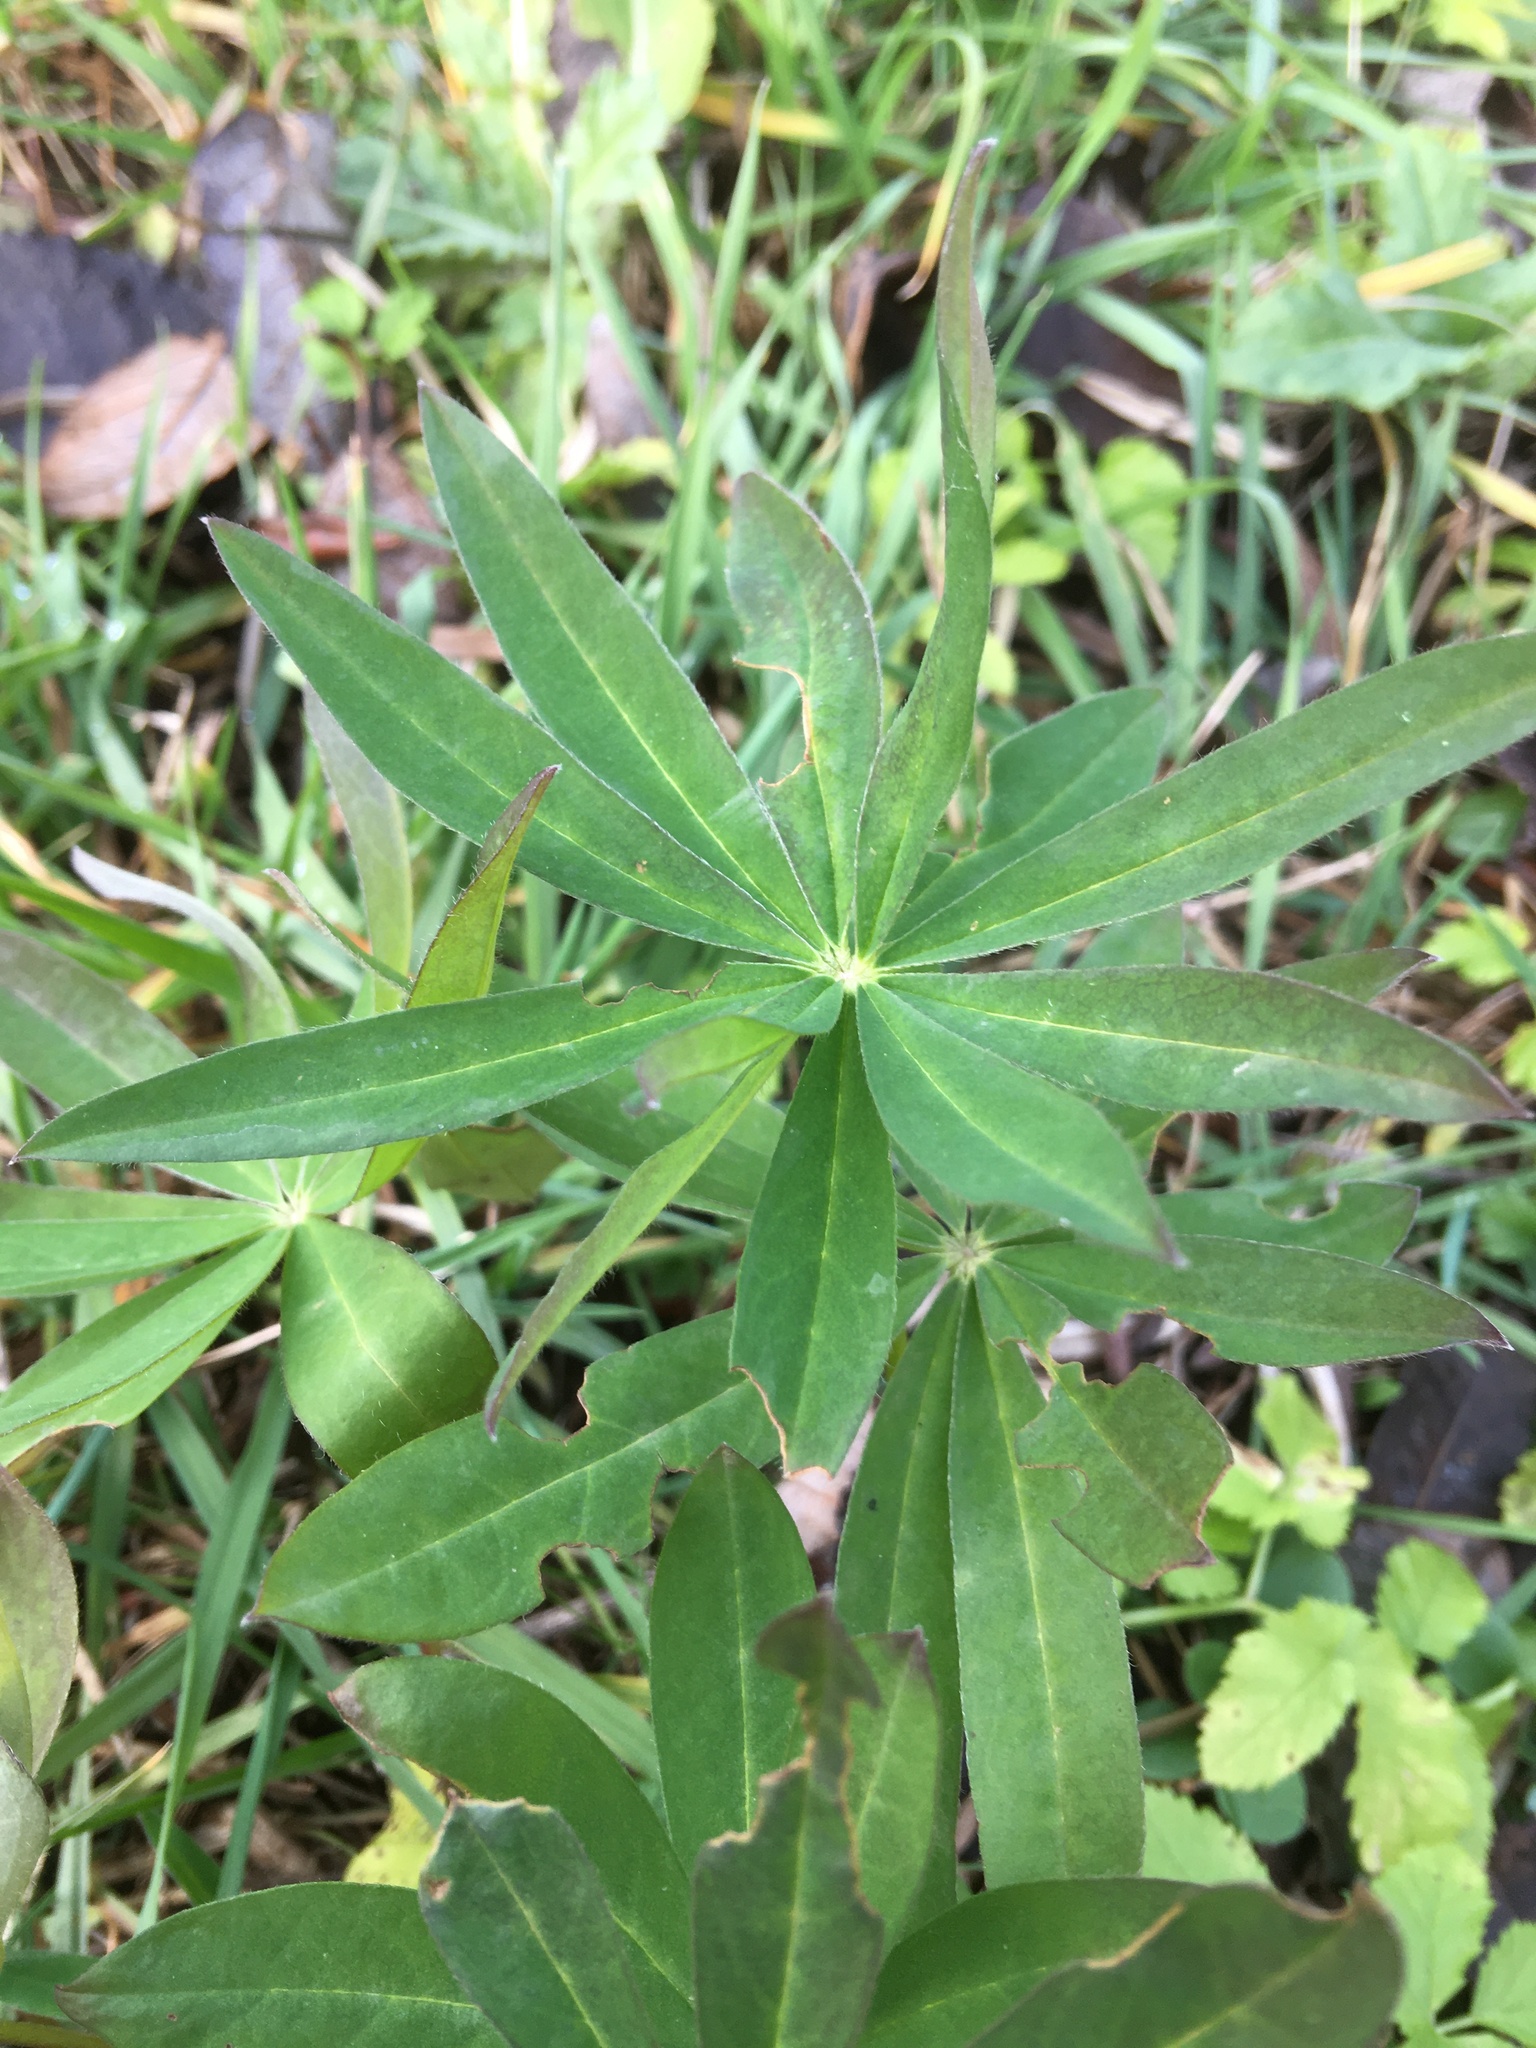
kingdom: Plantae
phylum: Tracheophyta
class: Magnoliopsida
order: Fabales
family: Fabaceae
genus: Lupinus
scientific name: Lupinus polyphyllus
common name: Garden lupin
